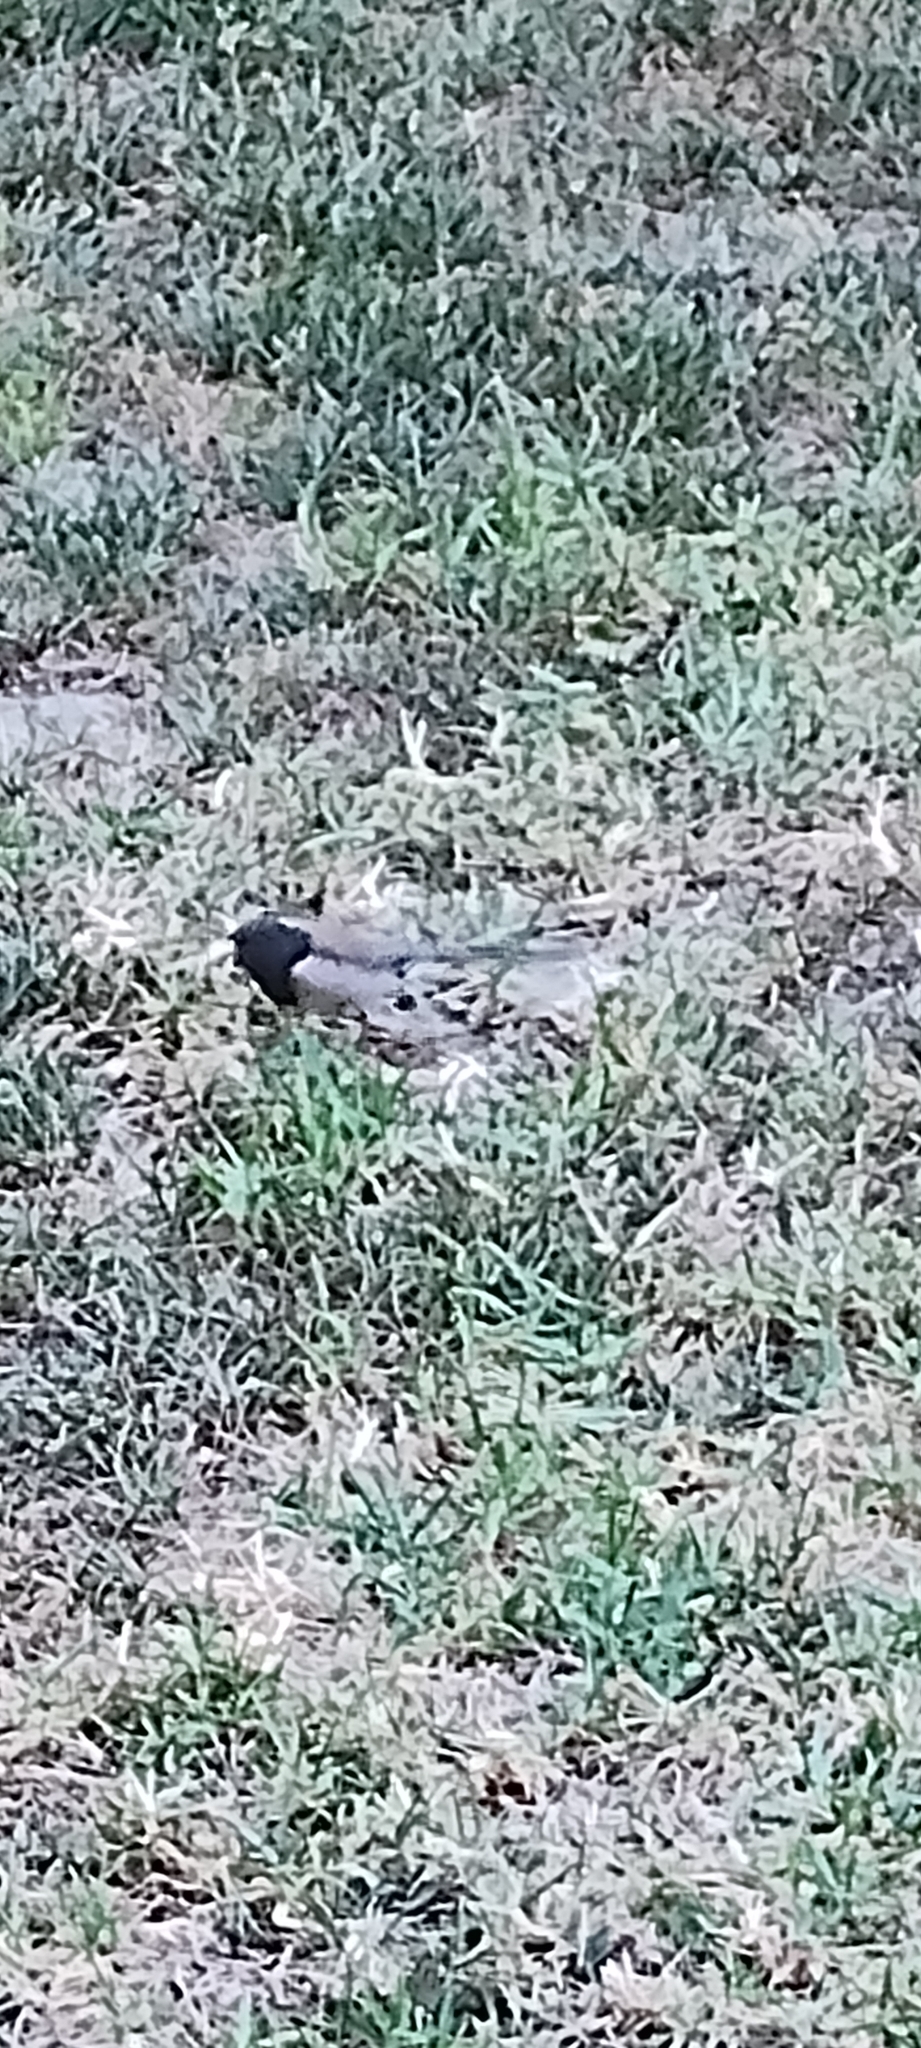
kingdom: Animalia
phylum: Chordata
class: Aves
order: Passeriformes
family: Passerellidae
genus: Junco
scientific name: Junco hyemalis
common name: Dark-eyed junco
